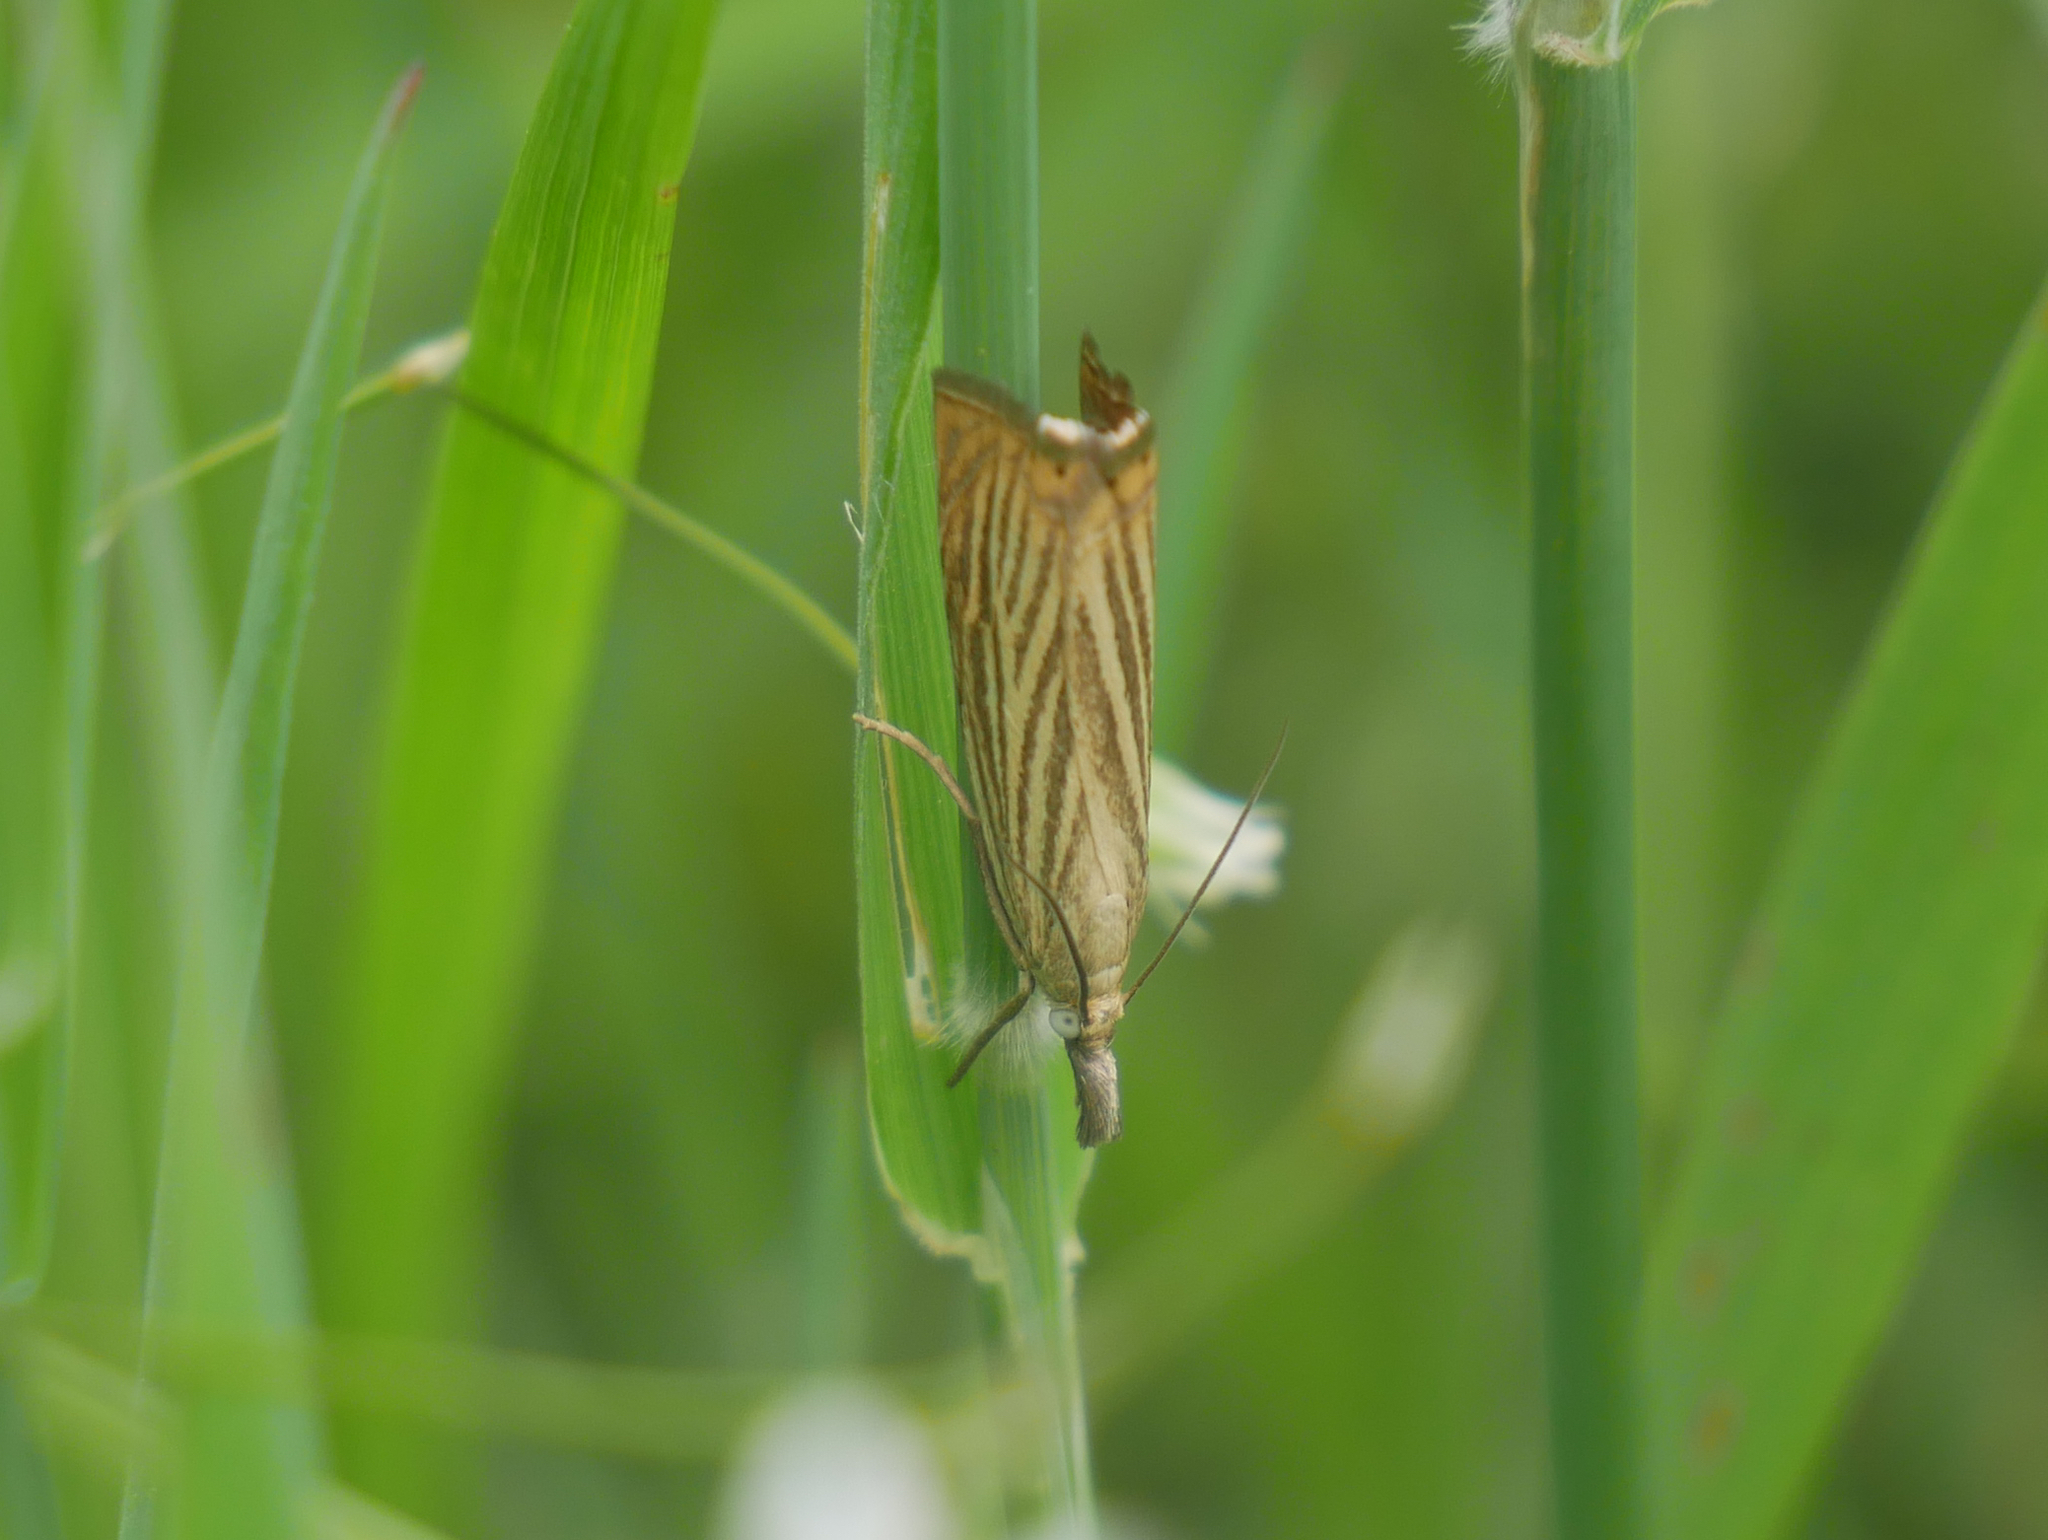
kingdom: Animalia
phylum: Arthropoda
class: Insecta
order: Lepidoptera
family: Crambidae
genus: Chrysoteuchia
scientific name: Chrysoteuchia culmella
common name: Garden grass-veneer
